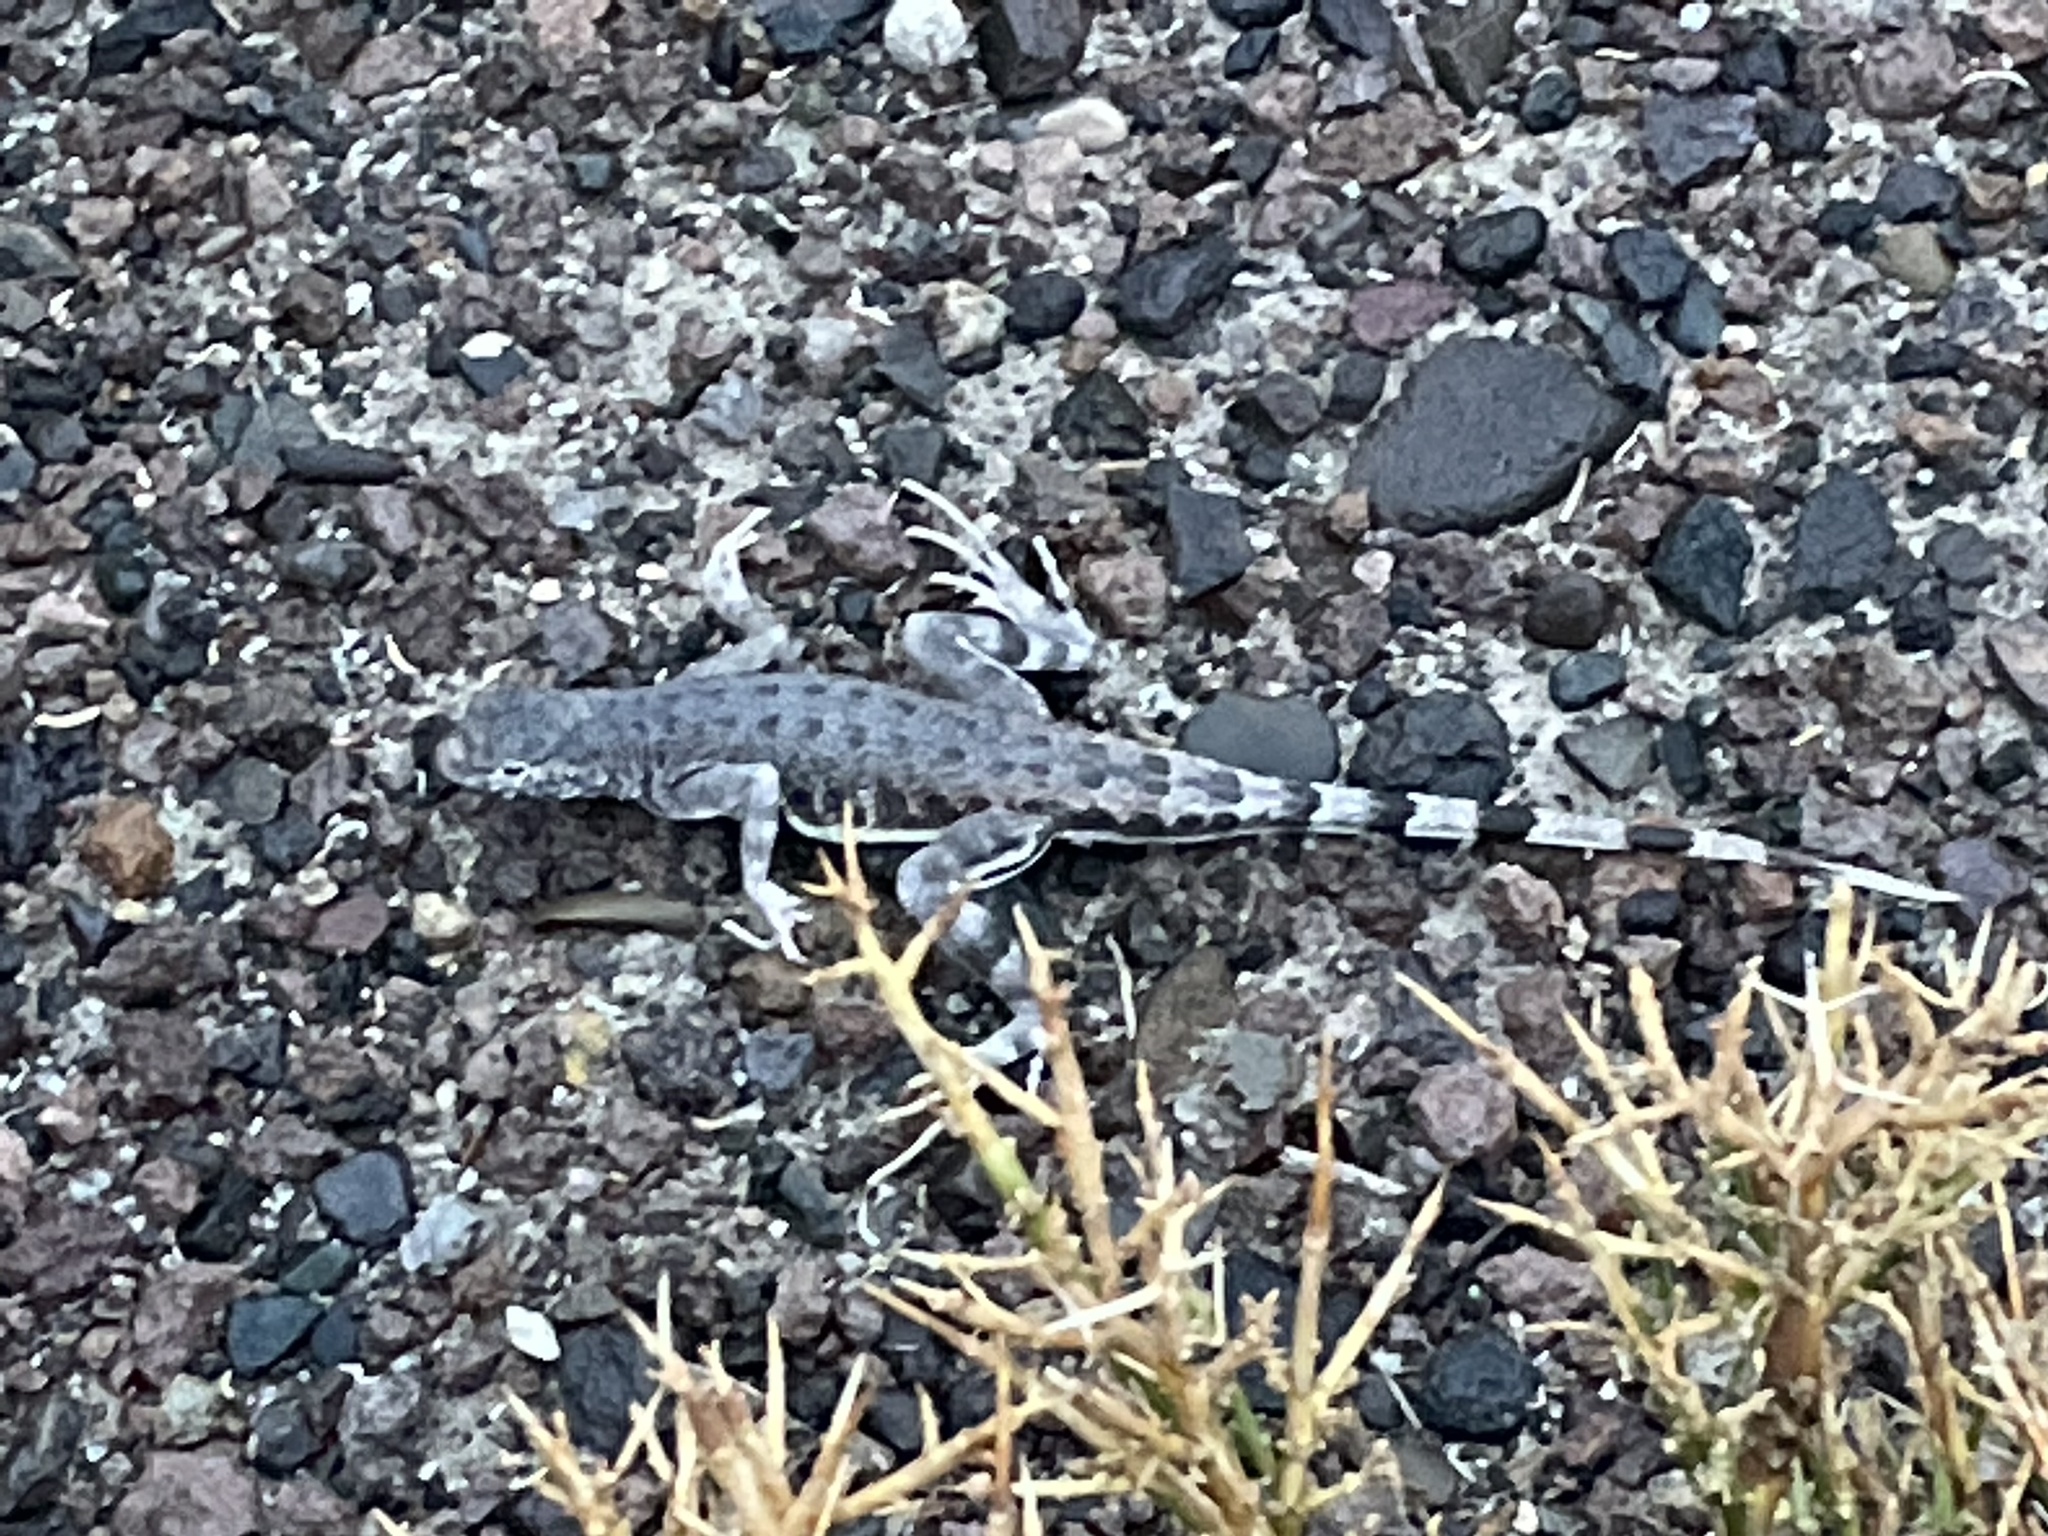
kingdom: Animalia
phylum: Chordata
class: Squamata
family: Phrynosomatidae
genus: Callisaurus
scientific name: Callisaurus draconoides
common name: Zebra-tailed lizard
